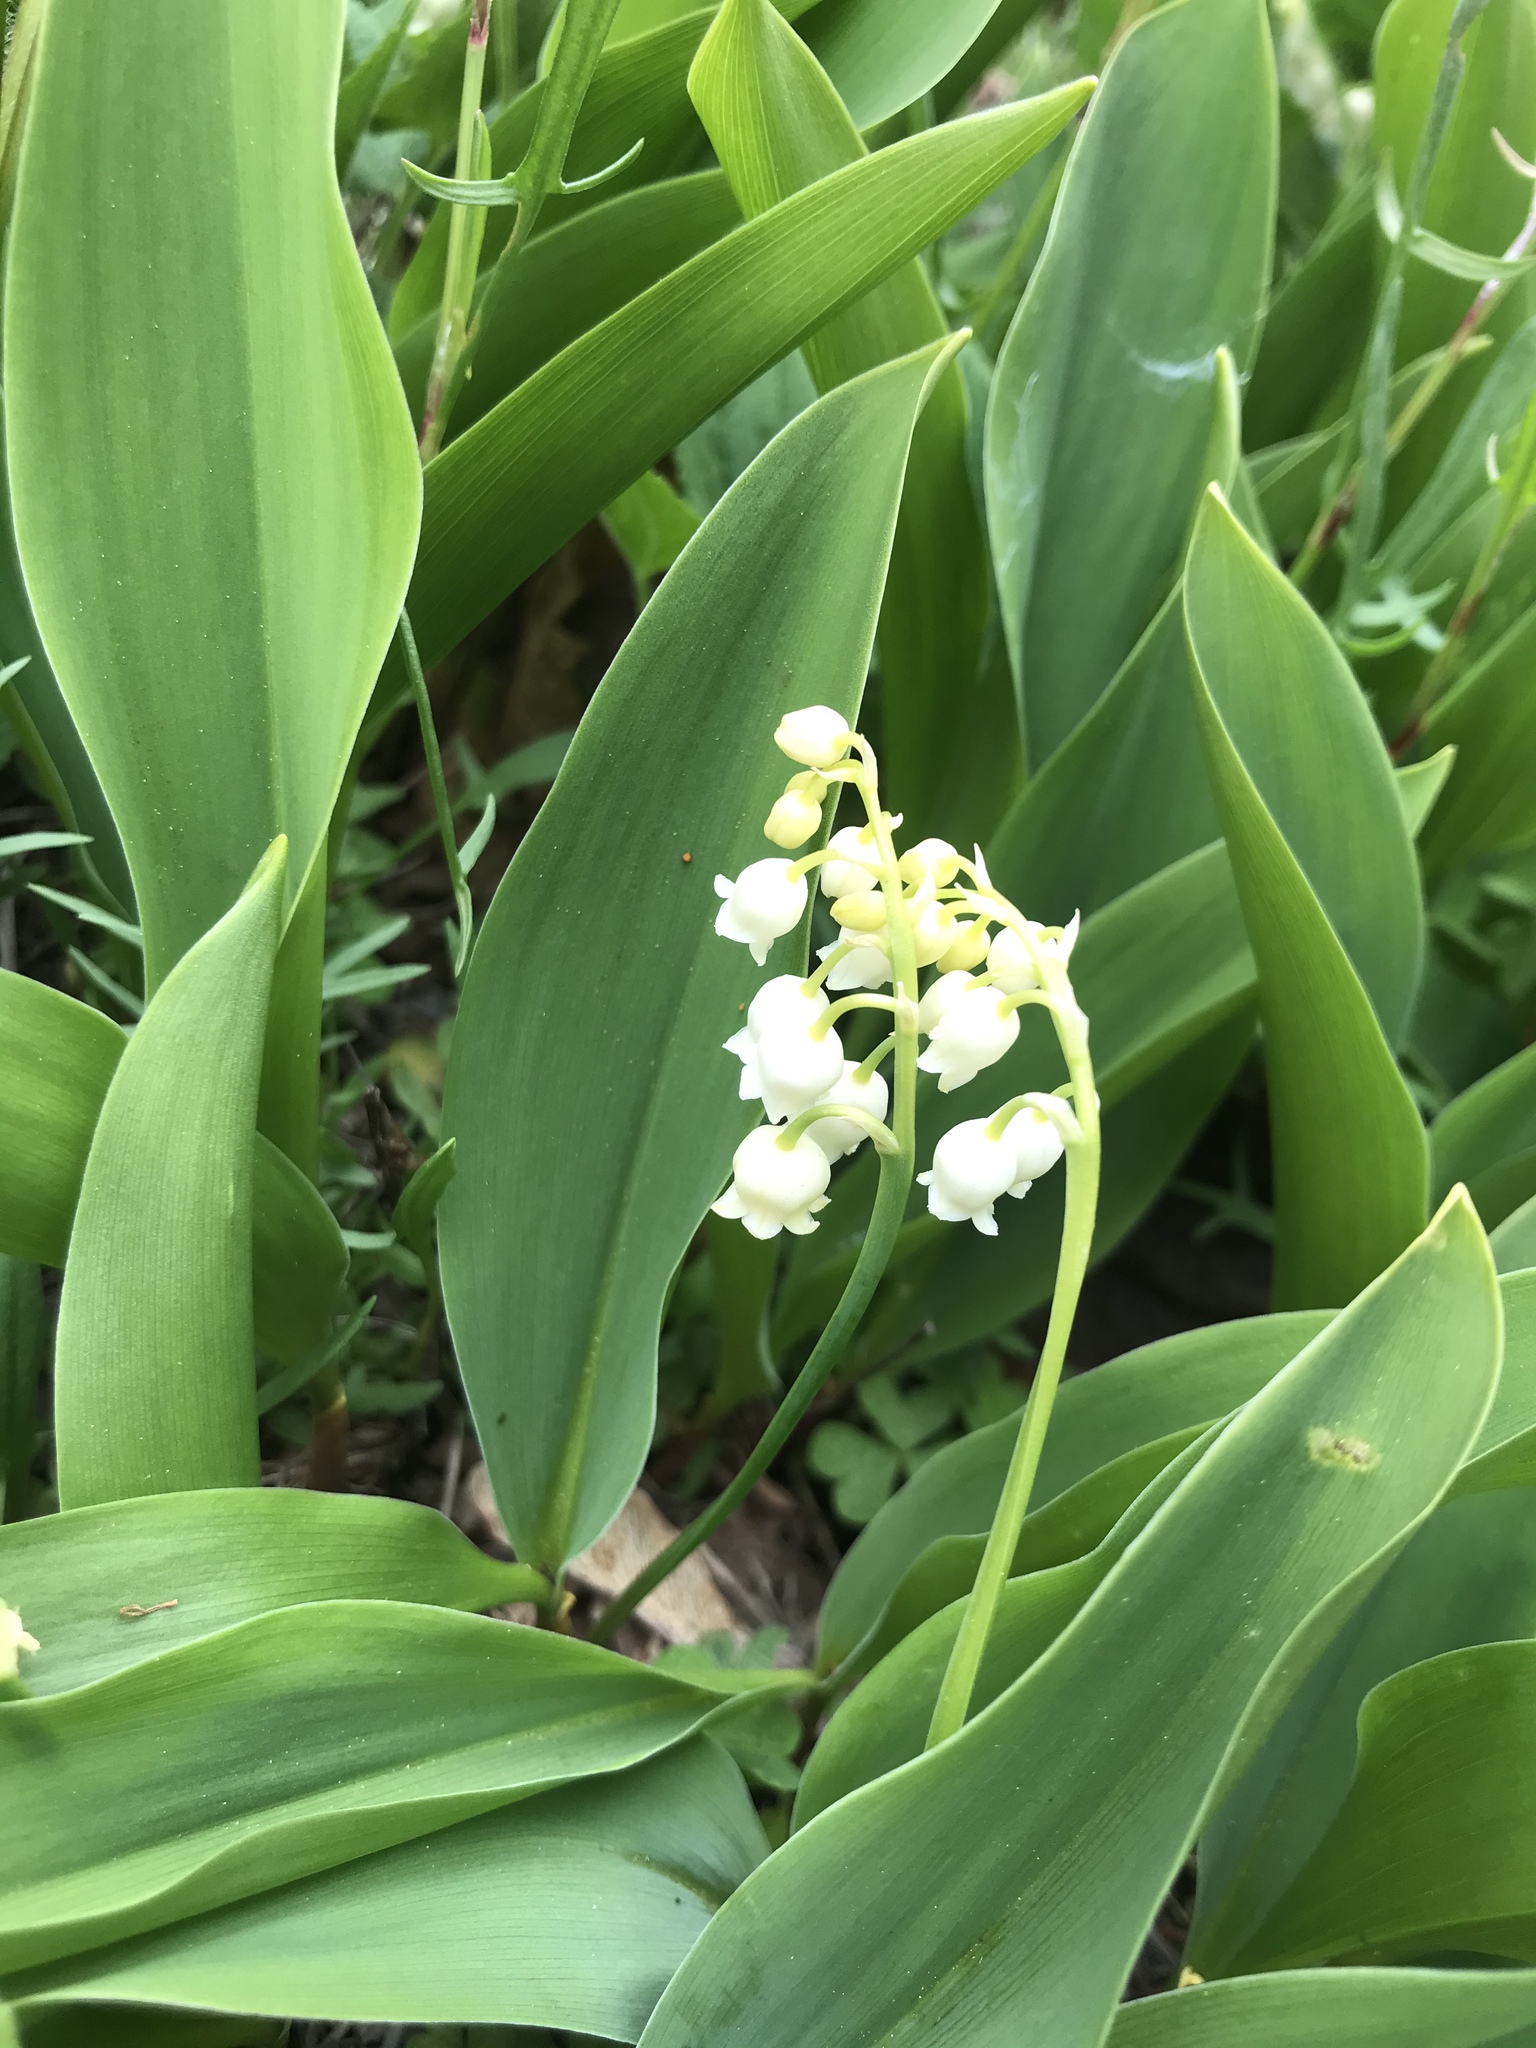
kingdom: Plantae
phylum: Tracheophyta
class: Liliopsida
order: Asparagales
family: Asparagaceae
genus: Convallaria
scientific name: Convallaria majalis
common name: Lily-of-the-valley
